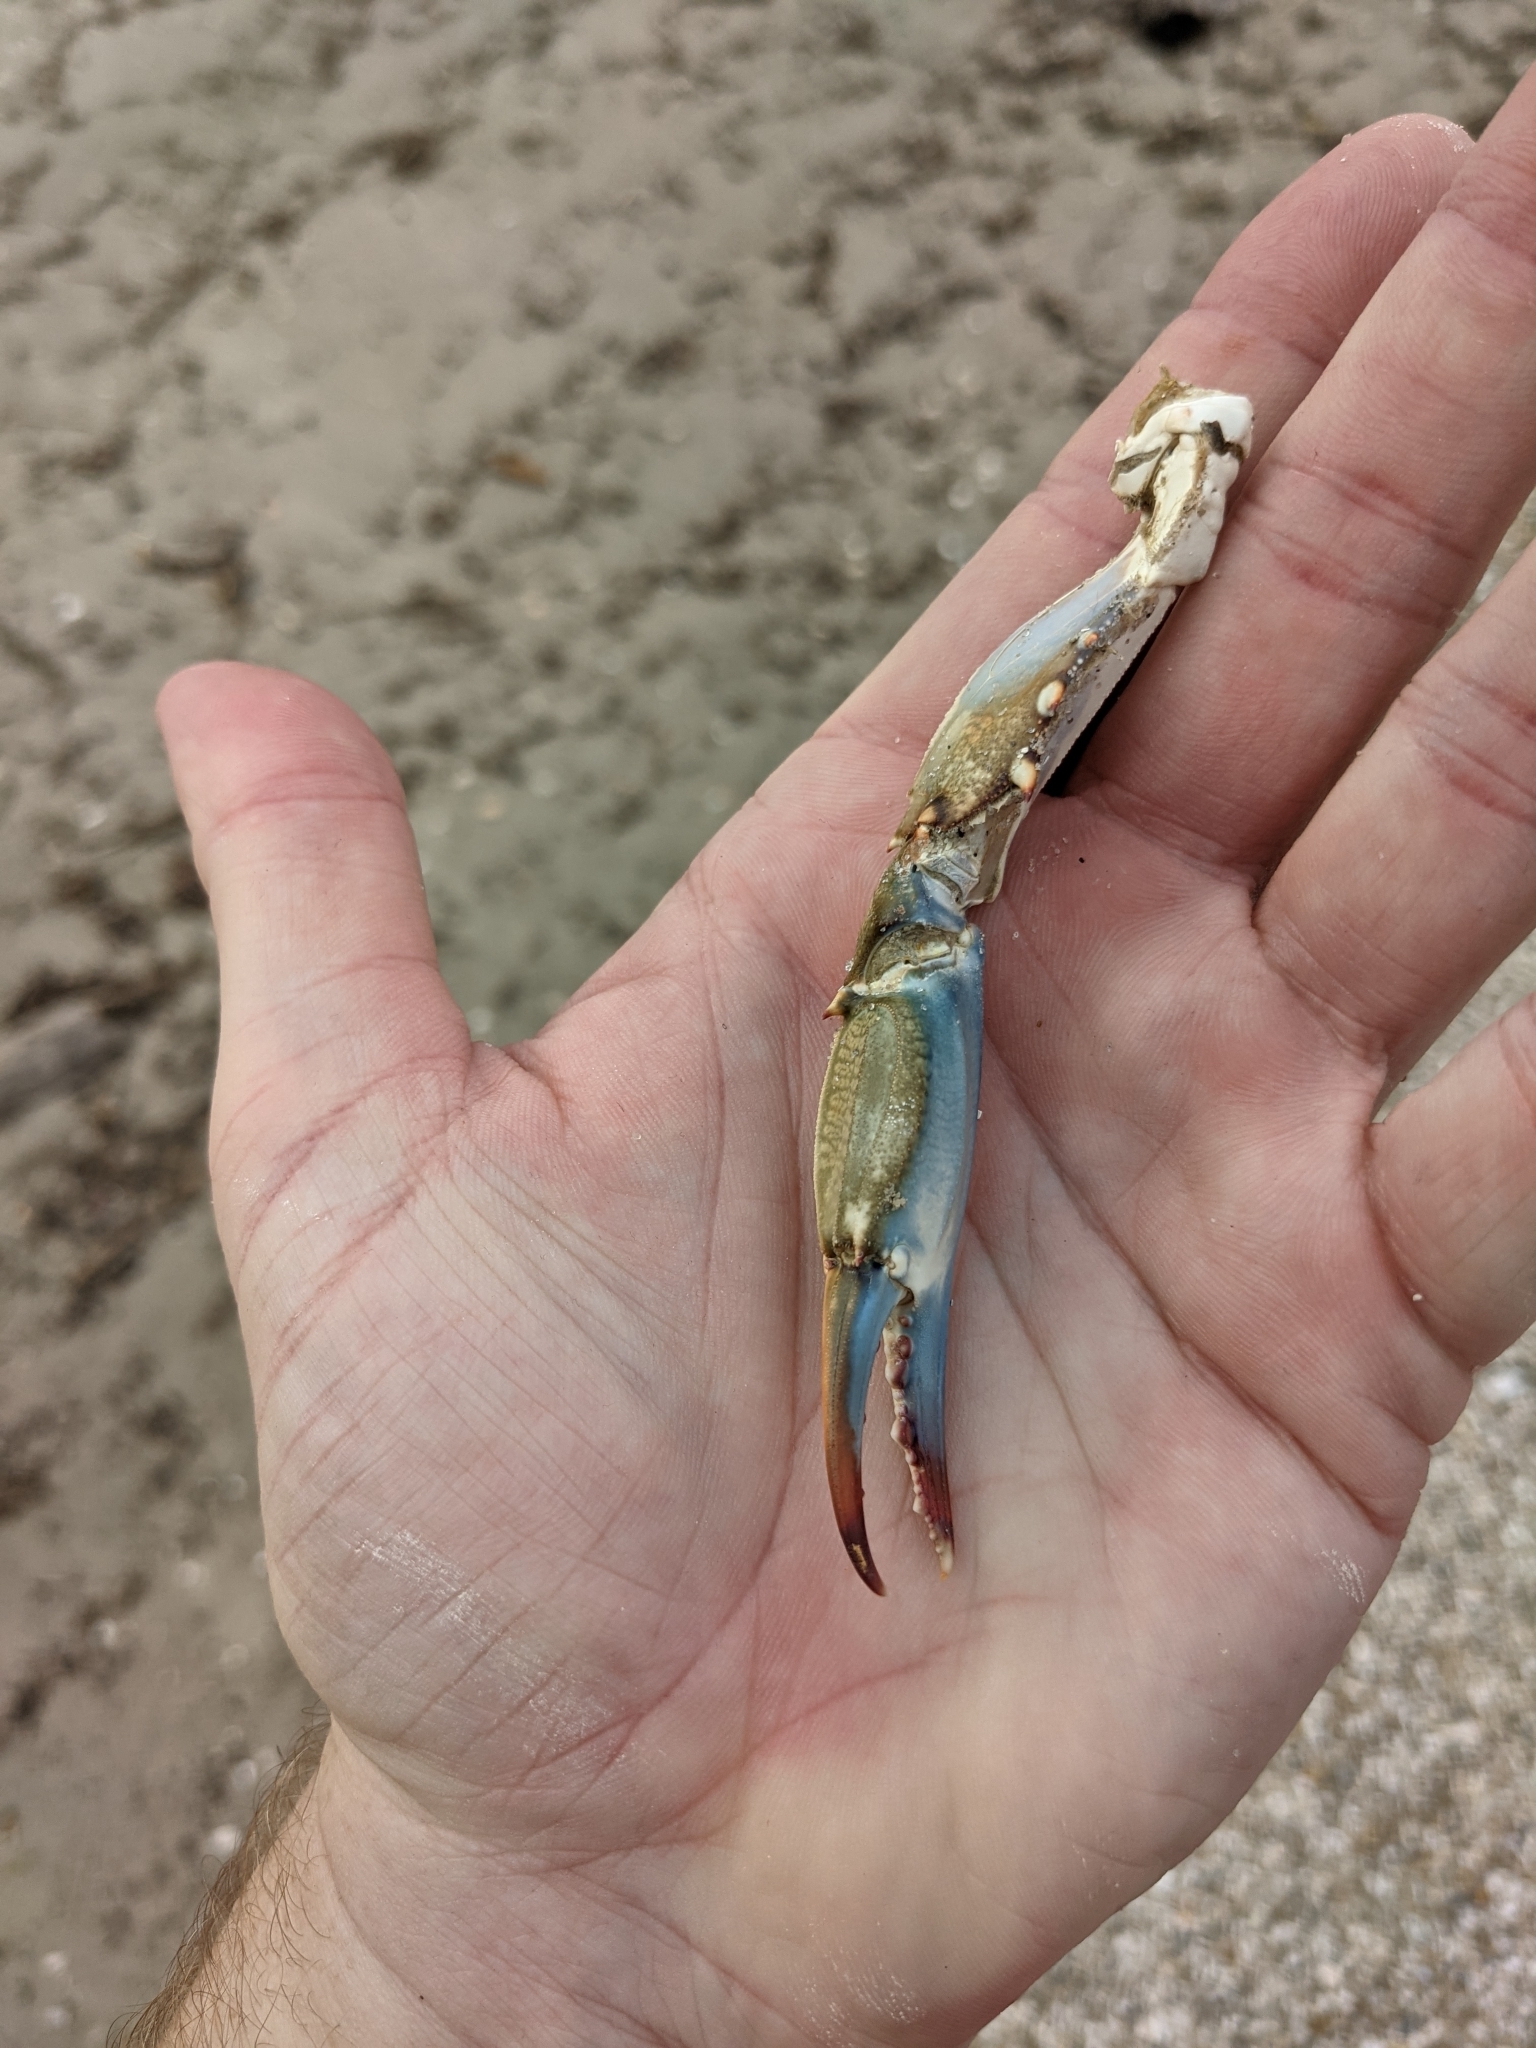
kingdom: Animalia
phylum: Arthropoda
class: Malacostraca
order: Decapoda
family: Portunidae
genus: Callinectes
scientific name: Callinectes sapidus
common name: Blue crab
